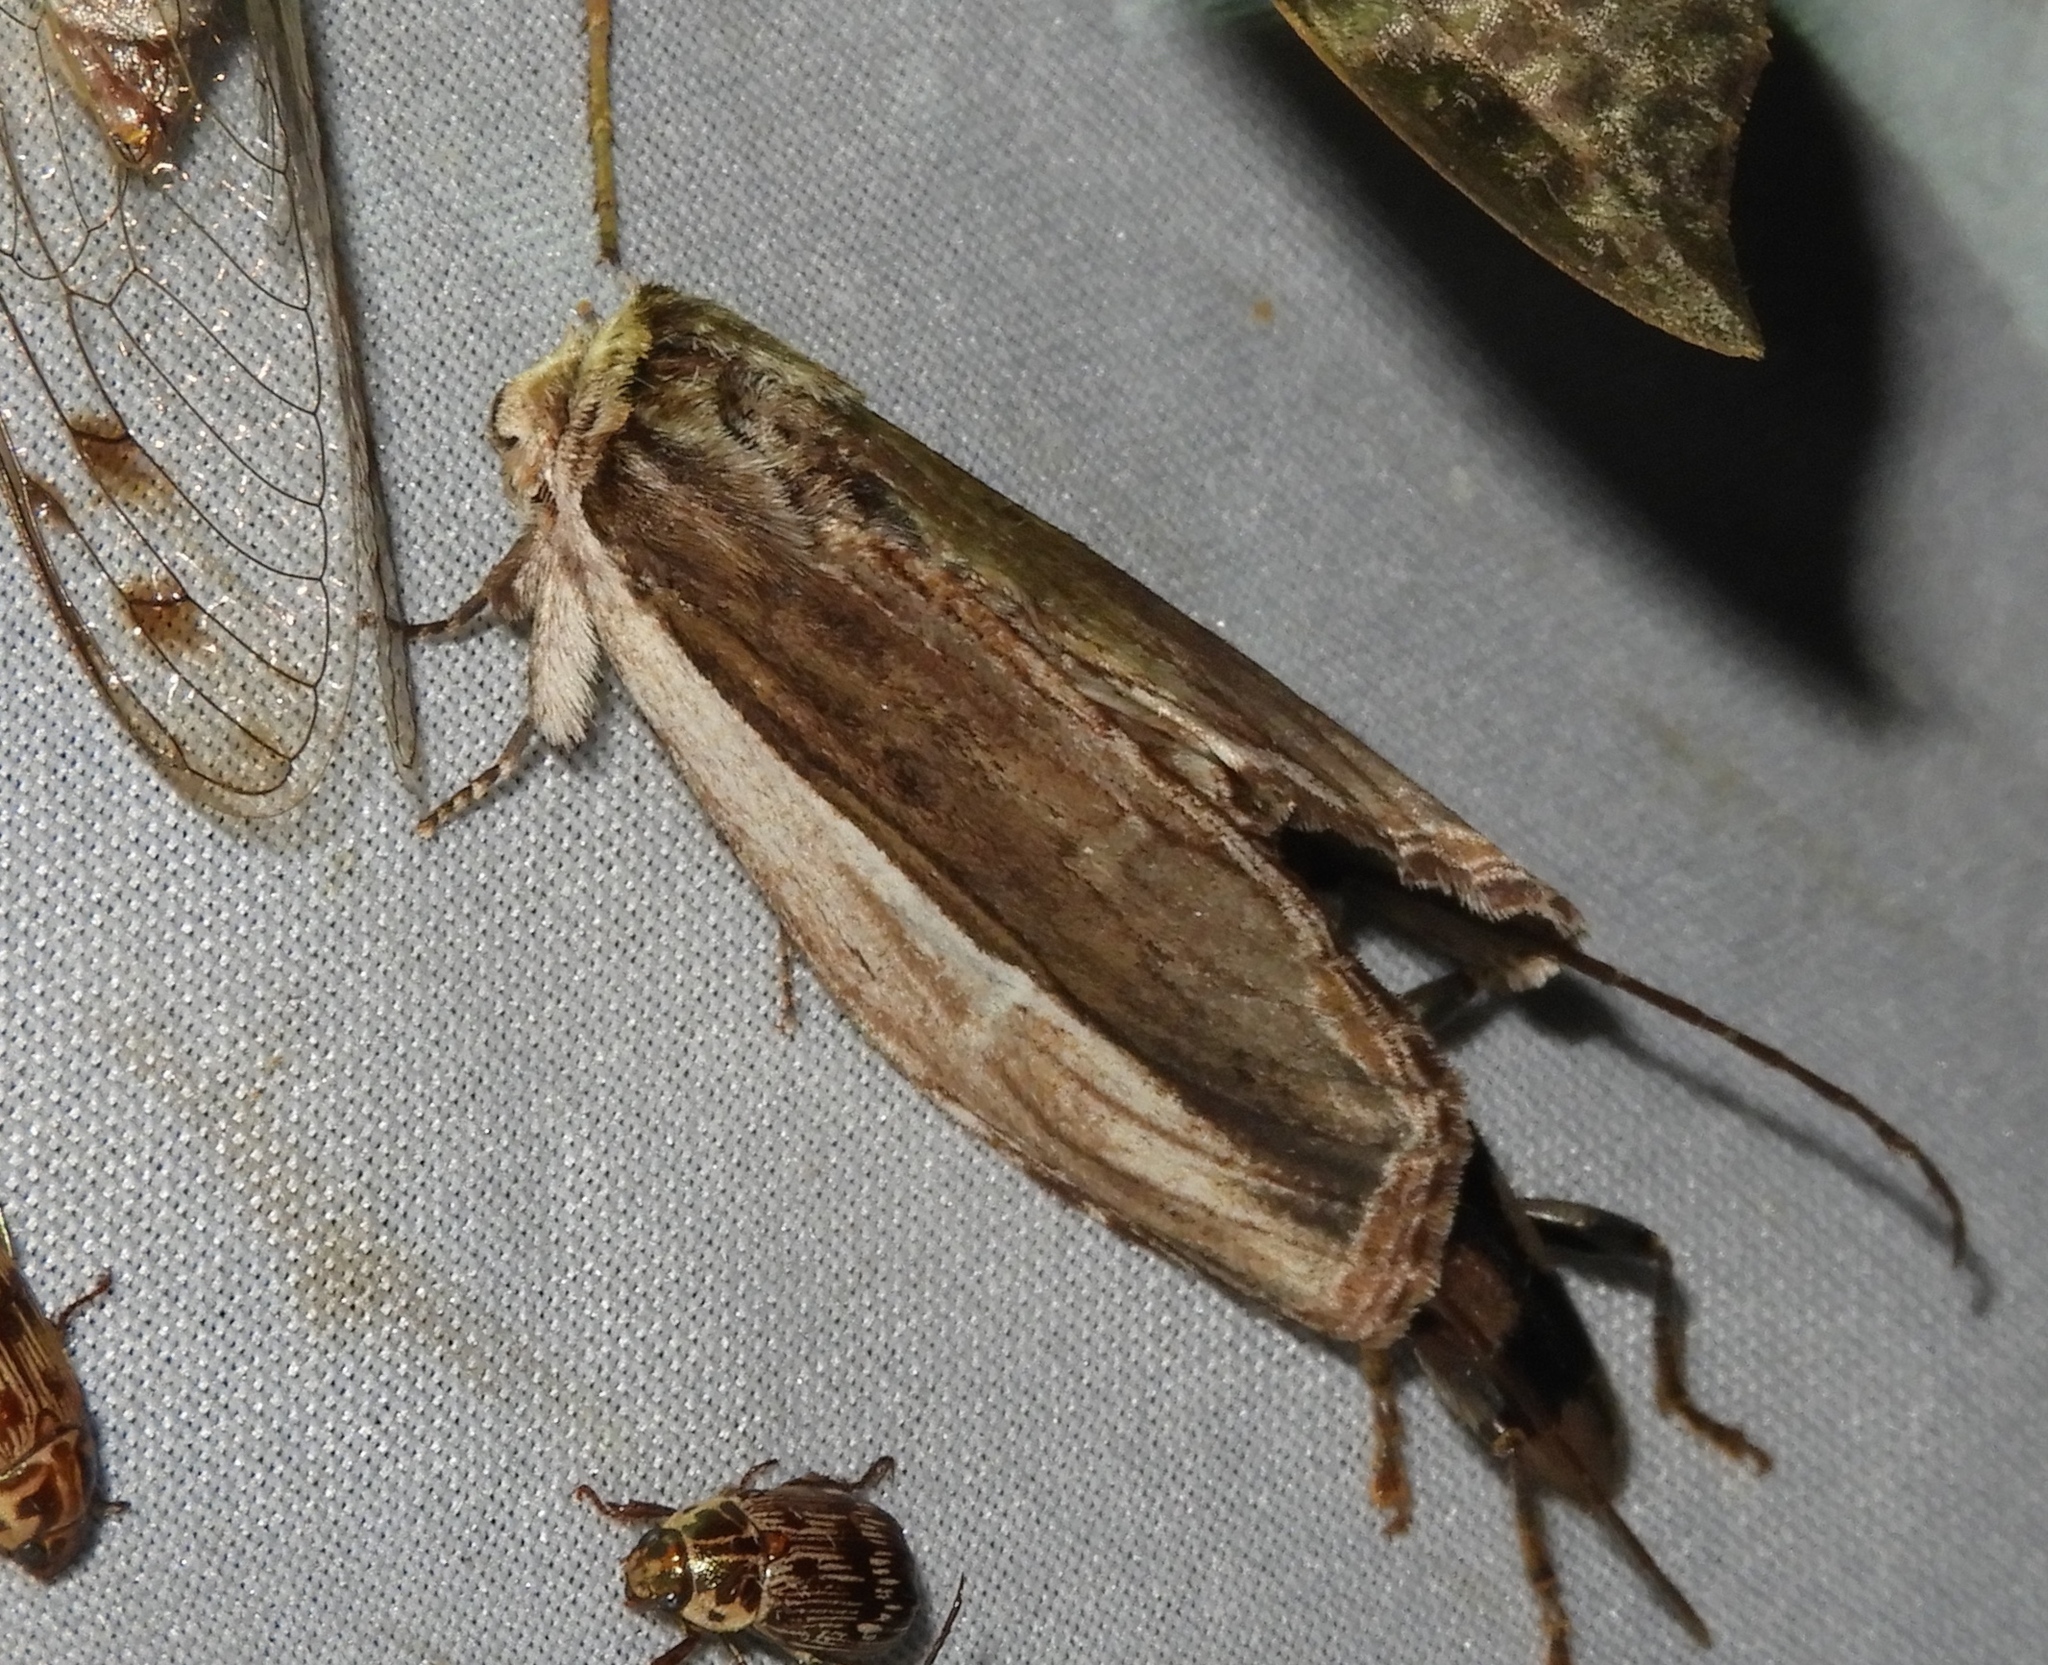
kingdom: Animalia
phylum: Arthropoda
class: Insecta
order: Lepidoptera
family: Notodontidae
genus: Truncaptera
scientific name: Truncaptera
